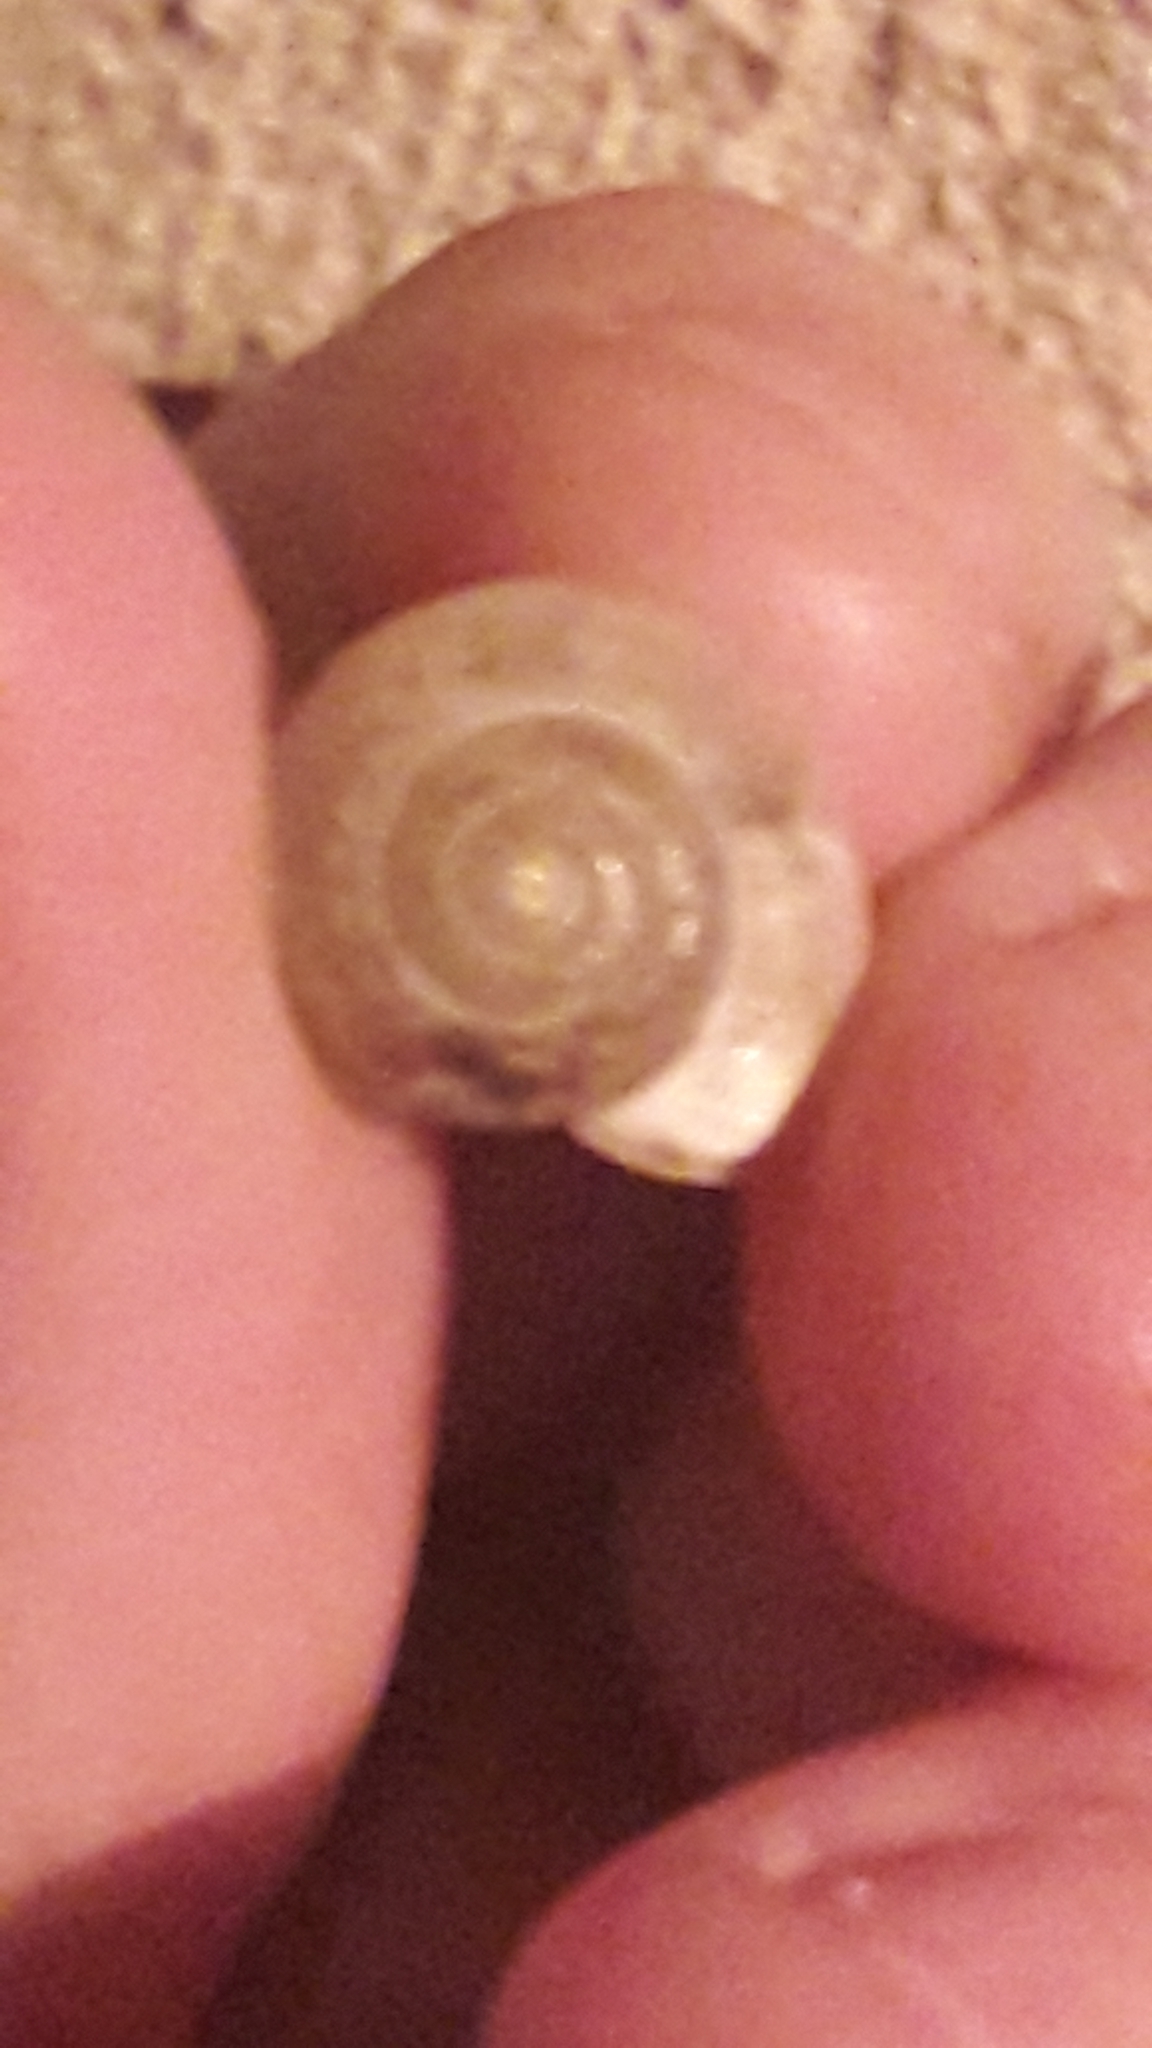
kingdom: Animalia
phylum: Mollusca
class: Gastropoda
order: Stylommatophora
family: Hygromiidae
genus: Monacha
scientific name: Monacha obstructa
